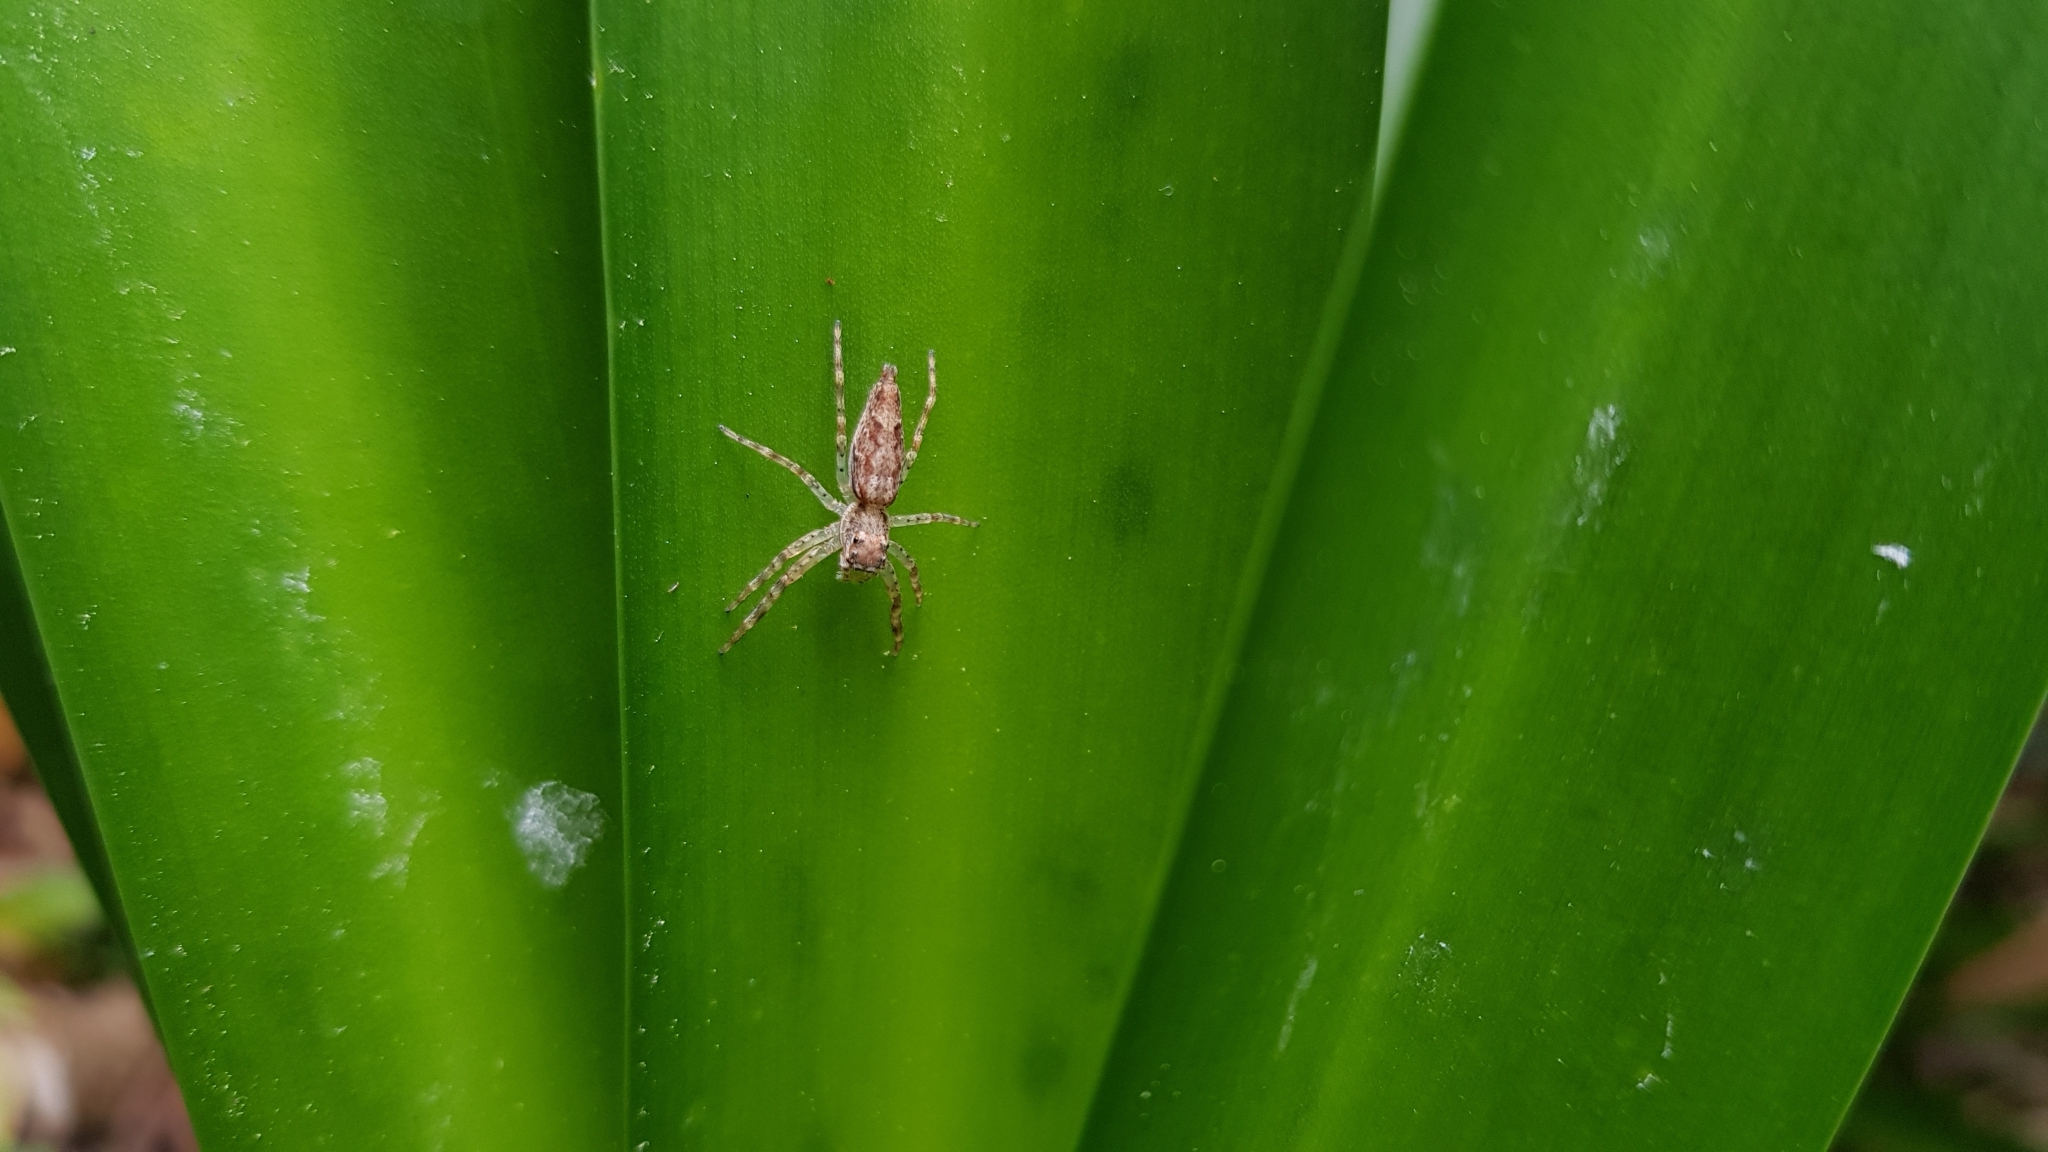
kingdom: Animalia
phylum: Arthropoda
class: Arachnida
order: Araneae
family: Salticidae
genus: Helpis
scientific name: Helpis minitabunda
